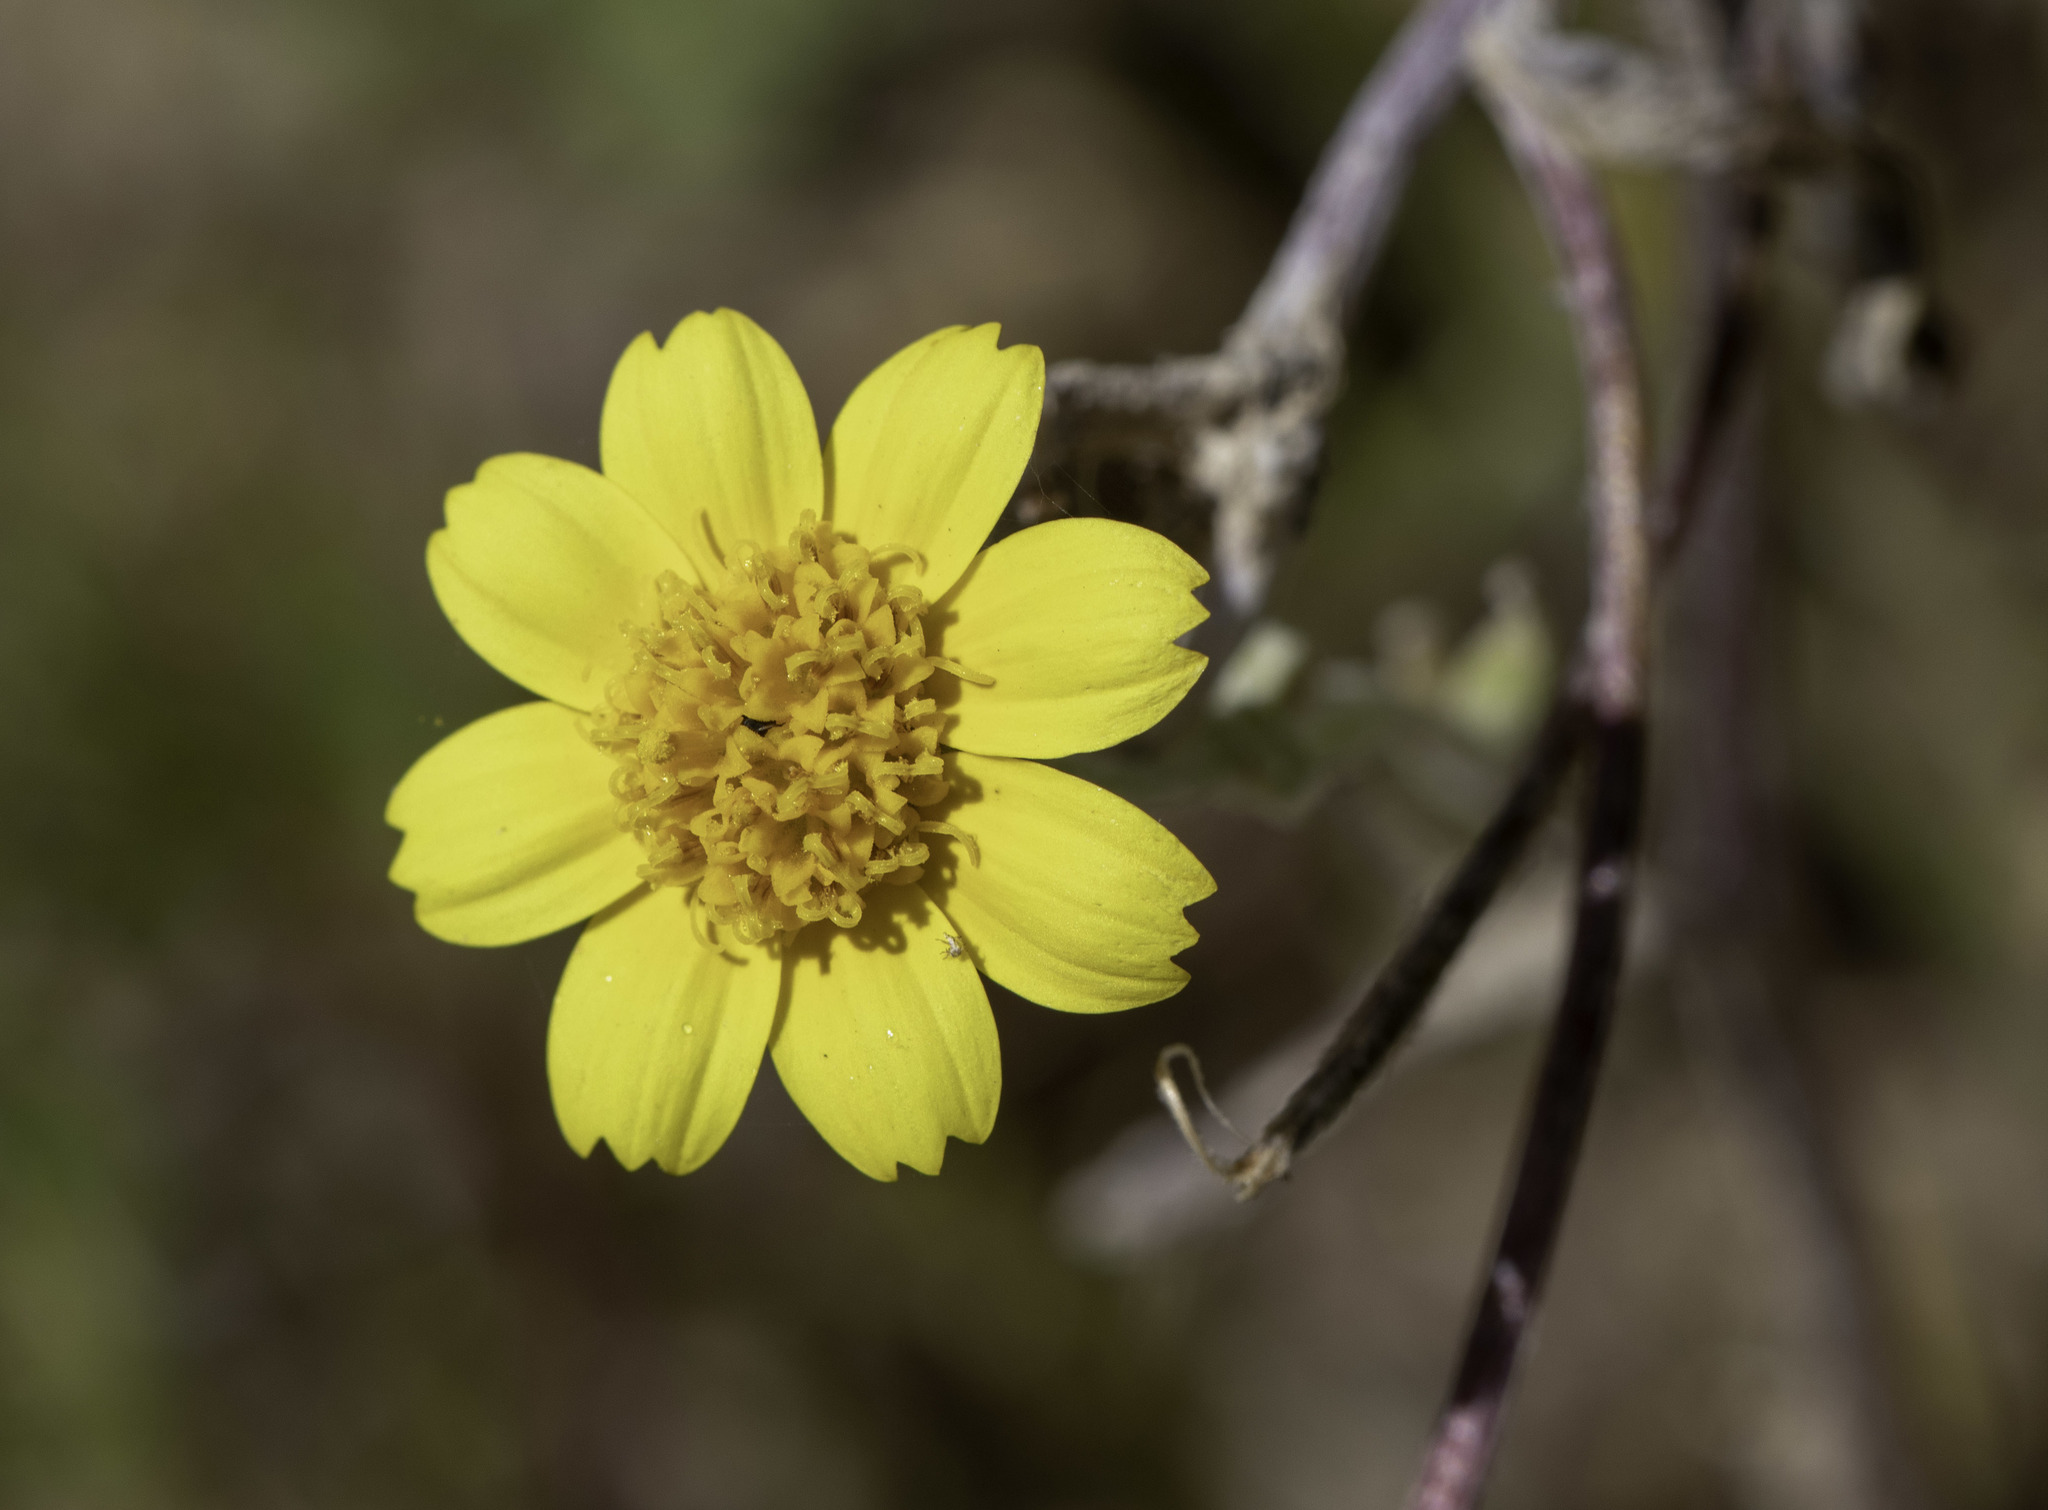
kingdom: Plantae
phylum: Tracheophyta
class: Magnoliopsida
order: Asterales
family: Asteraceae
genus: Monolopia
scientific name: Monolopia lanceolata
